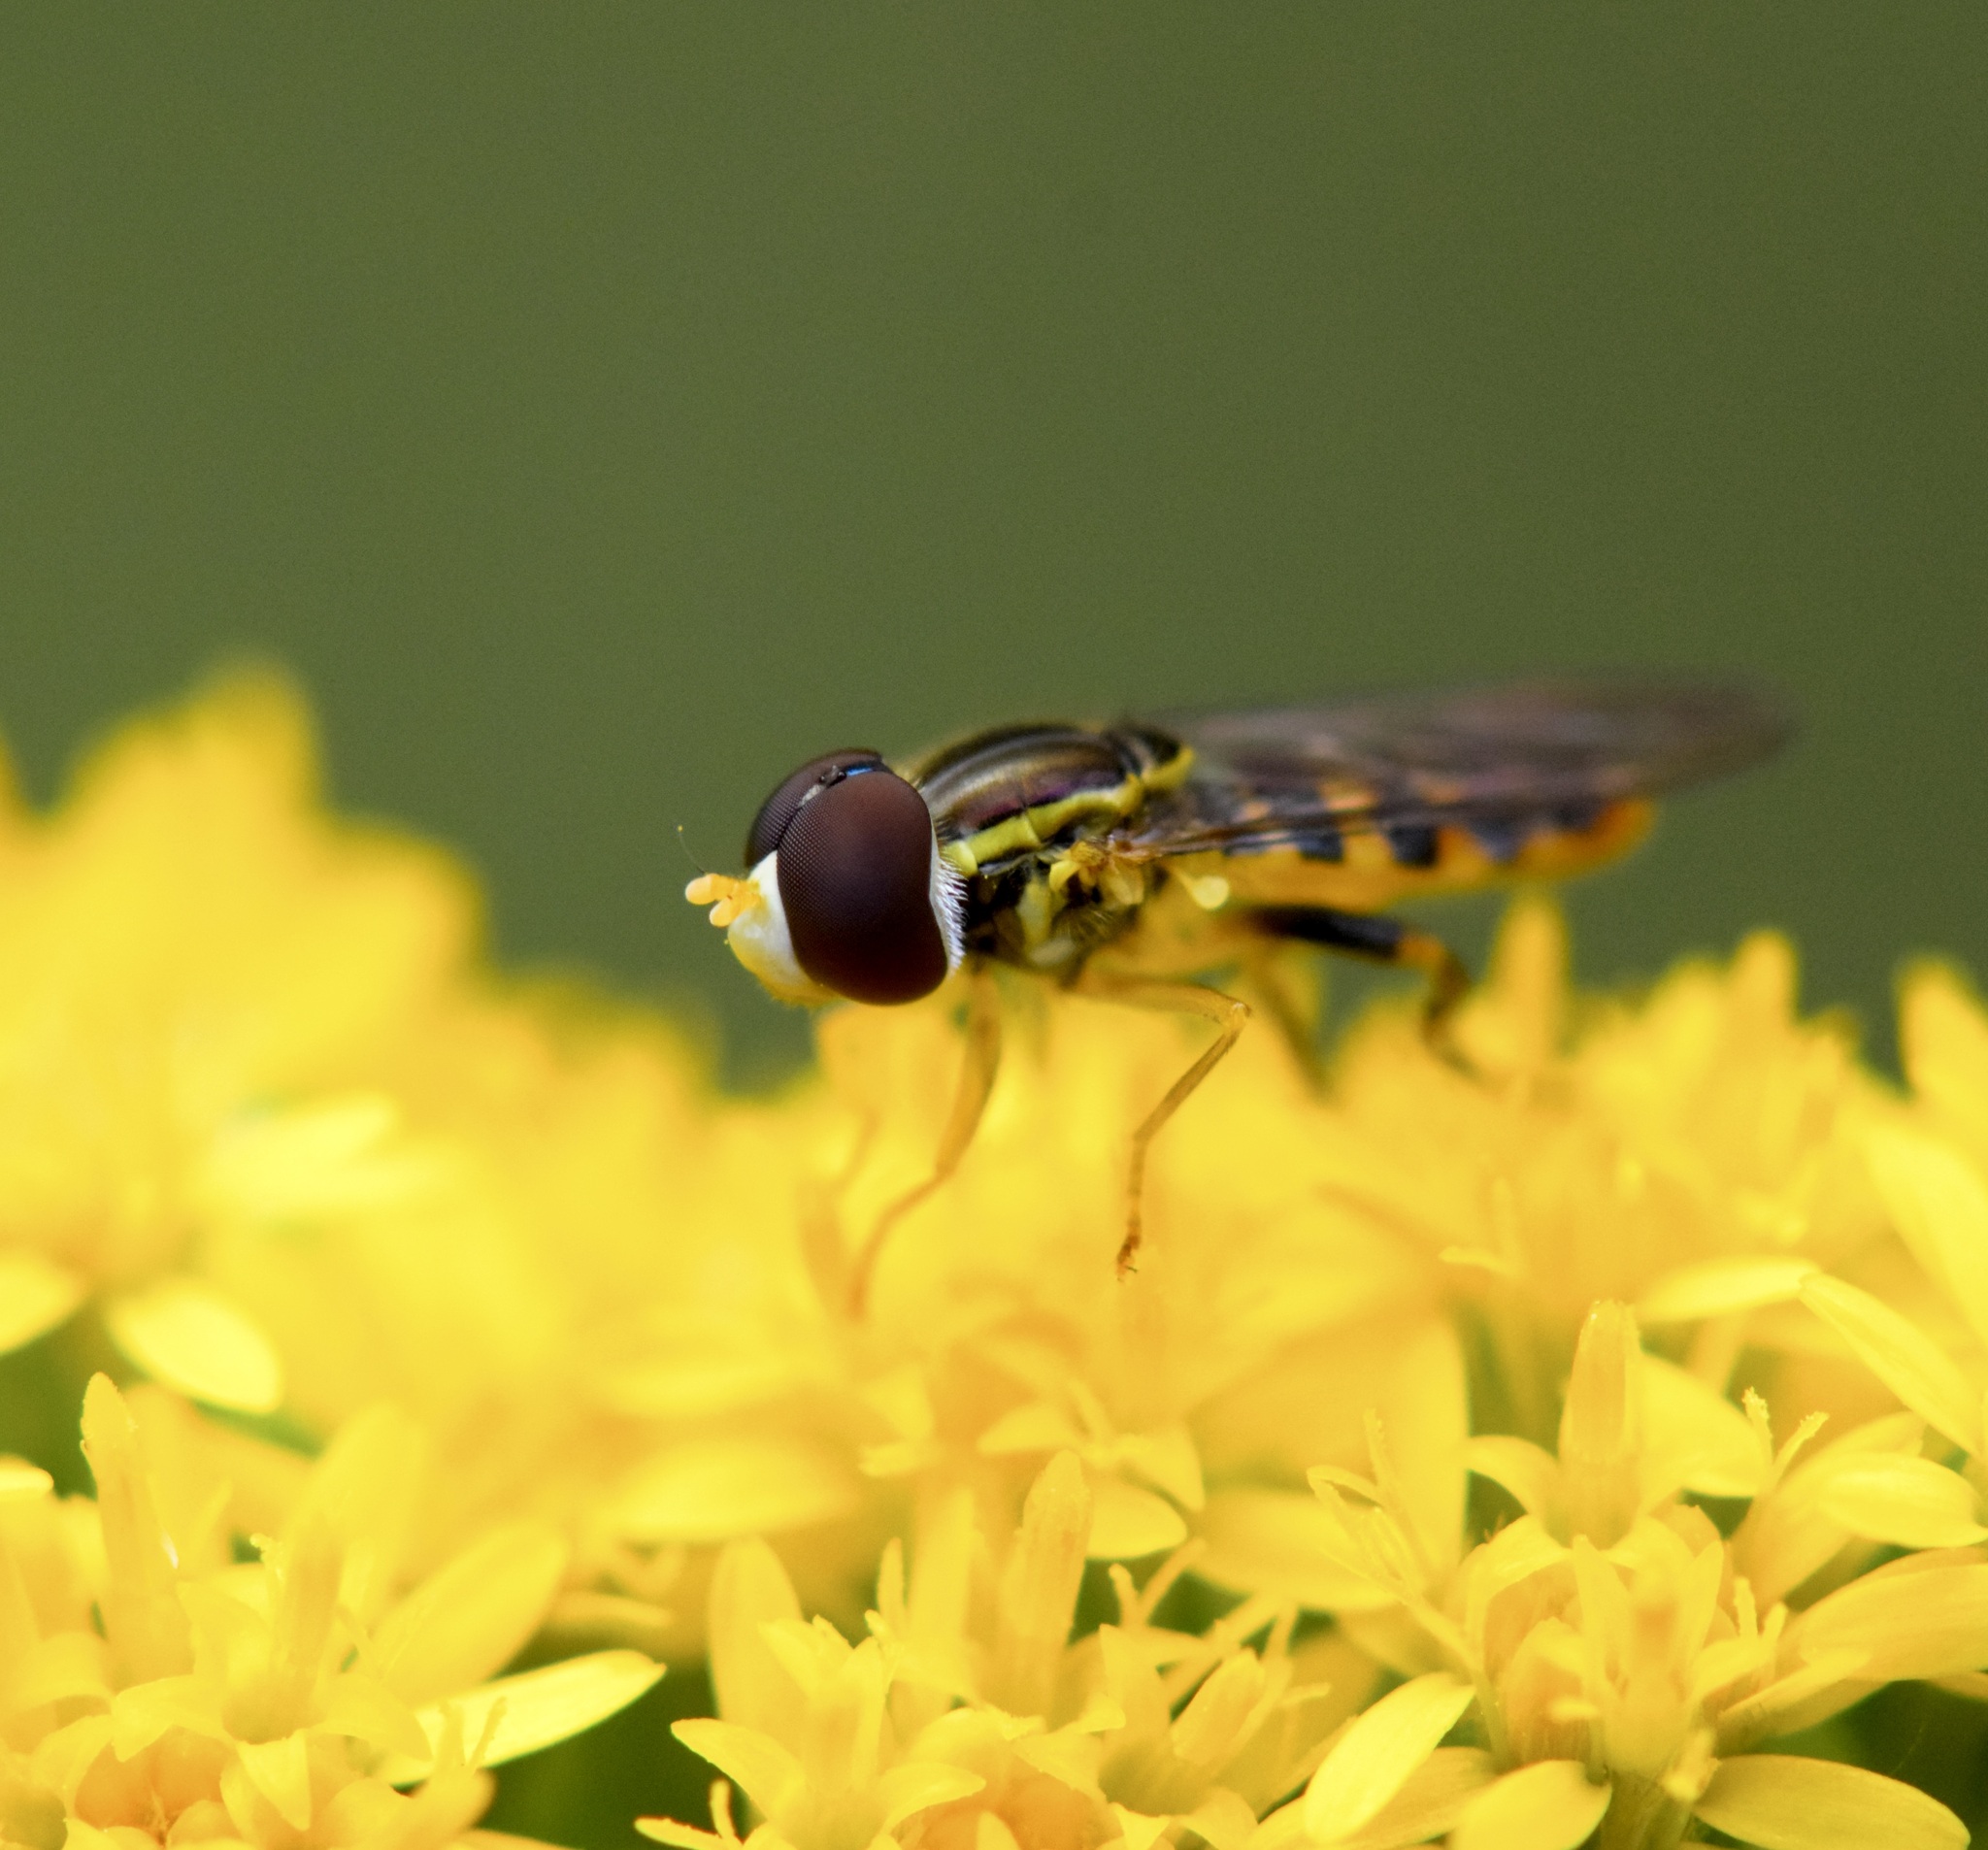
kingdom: Animalia
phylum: Arthropoda
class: Insecta
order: Diptera
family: Syrphidae
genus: Toxomerus
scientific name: Toxomerus geminatus
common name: Eastern calligrapher
